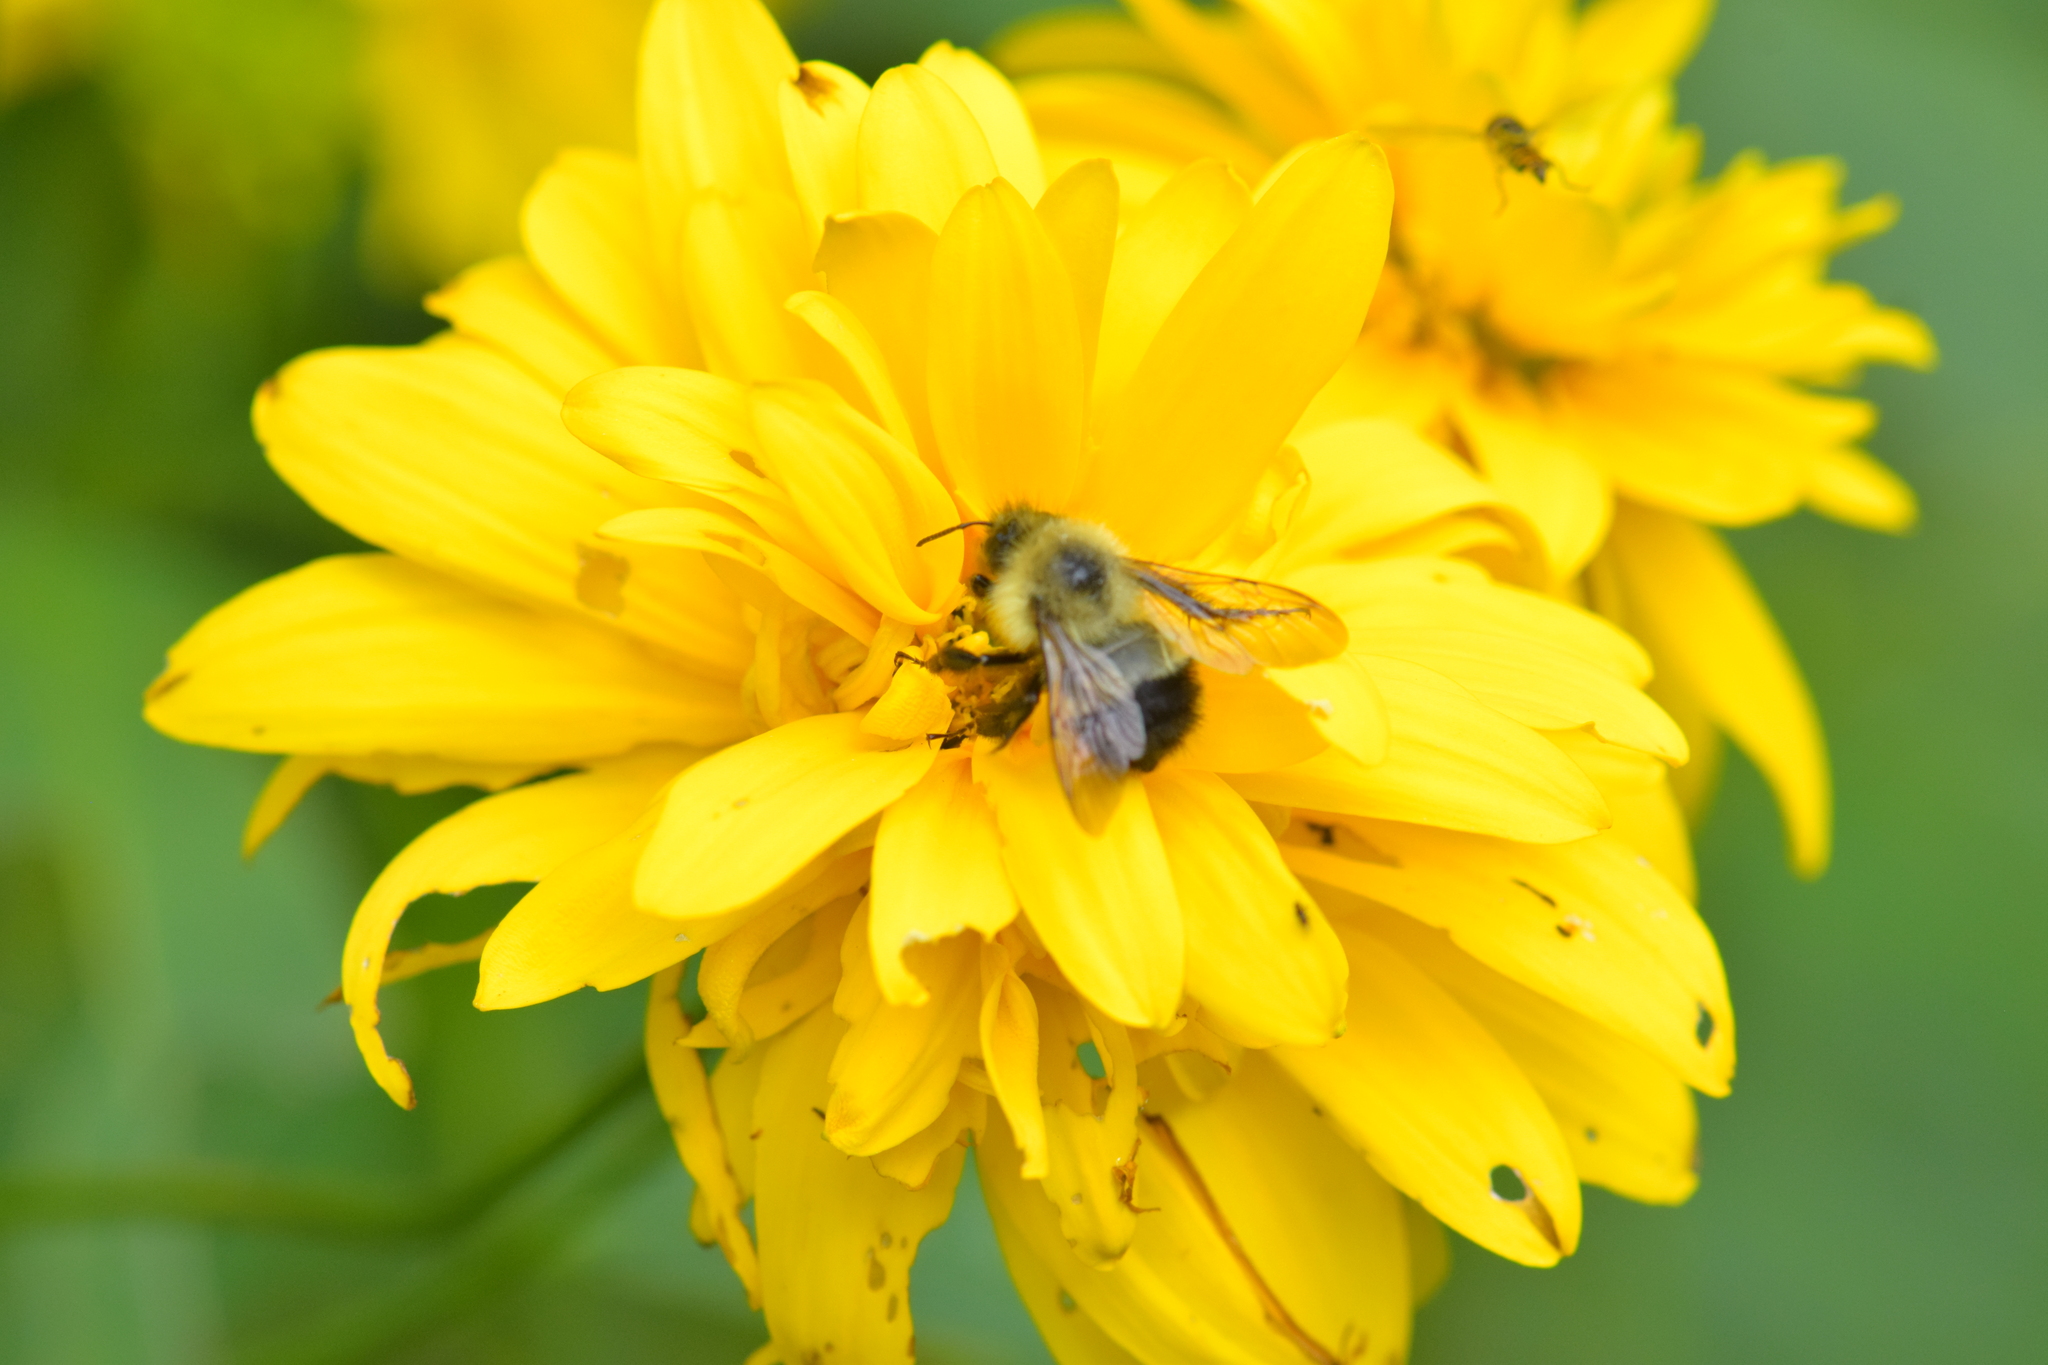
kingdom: Animalia
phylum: Arthropoda
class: Insecta
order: Hymenoptera
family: Apidae
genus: Pyrobombus
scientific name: Pyrobombus
